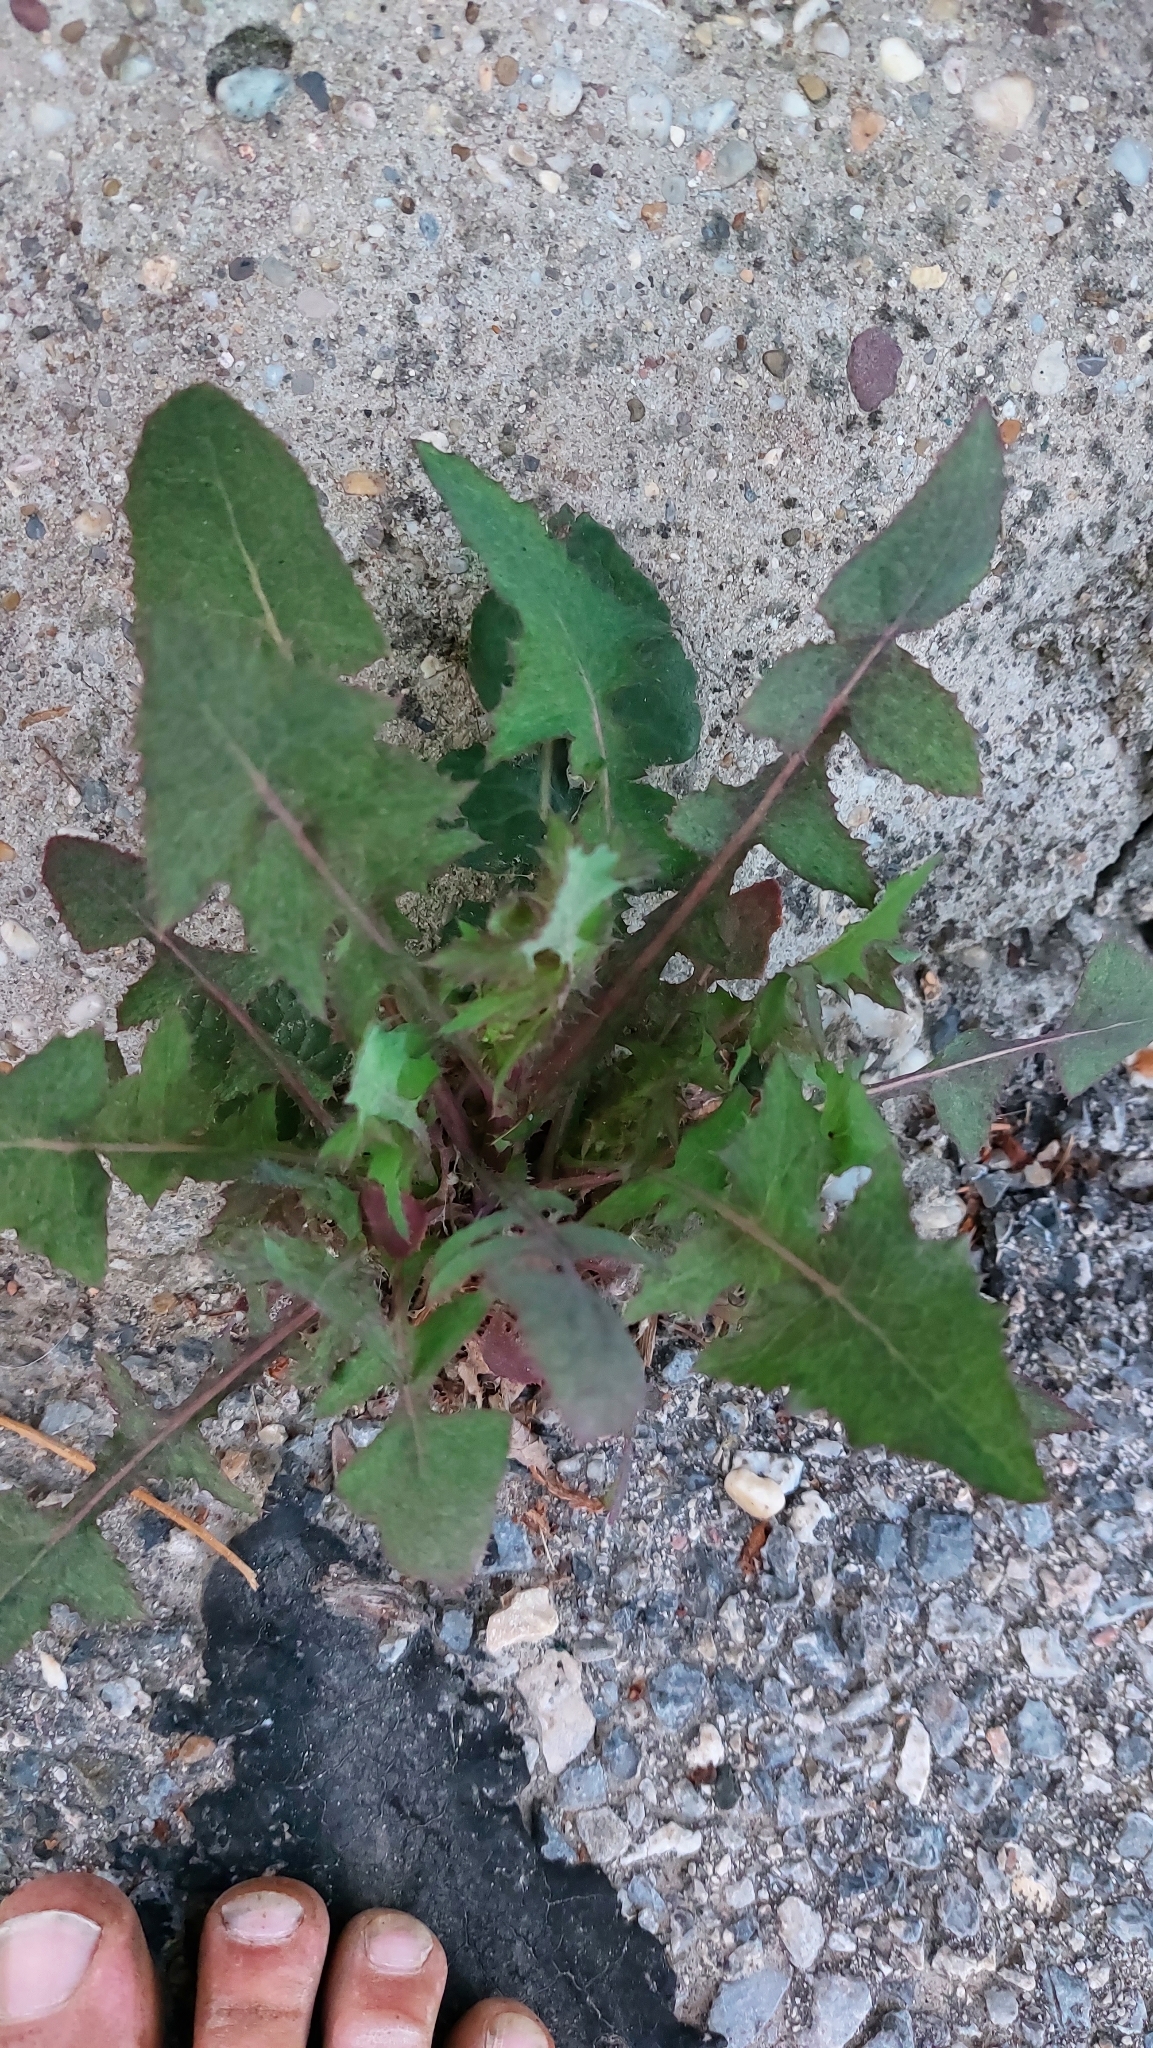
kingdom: Plantae
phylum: Tracheophyta
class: Magnoliopsida
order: Asterales
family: Asteraceae
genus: Sonchus
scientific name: Sonchus oleraceus
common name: Common sowthistle
